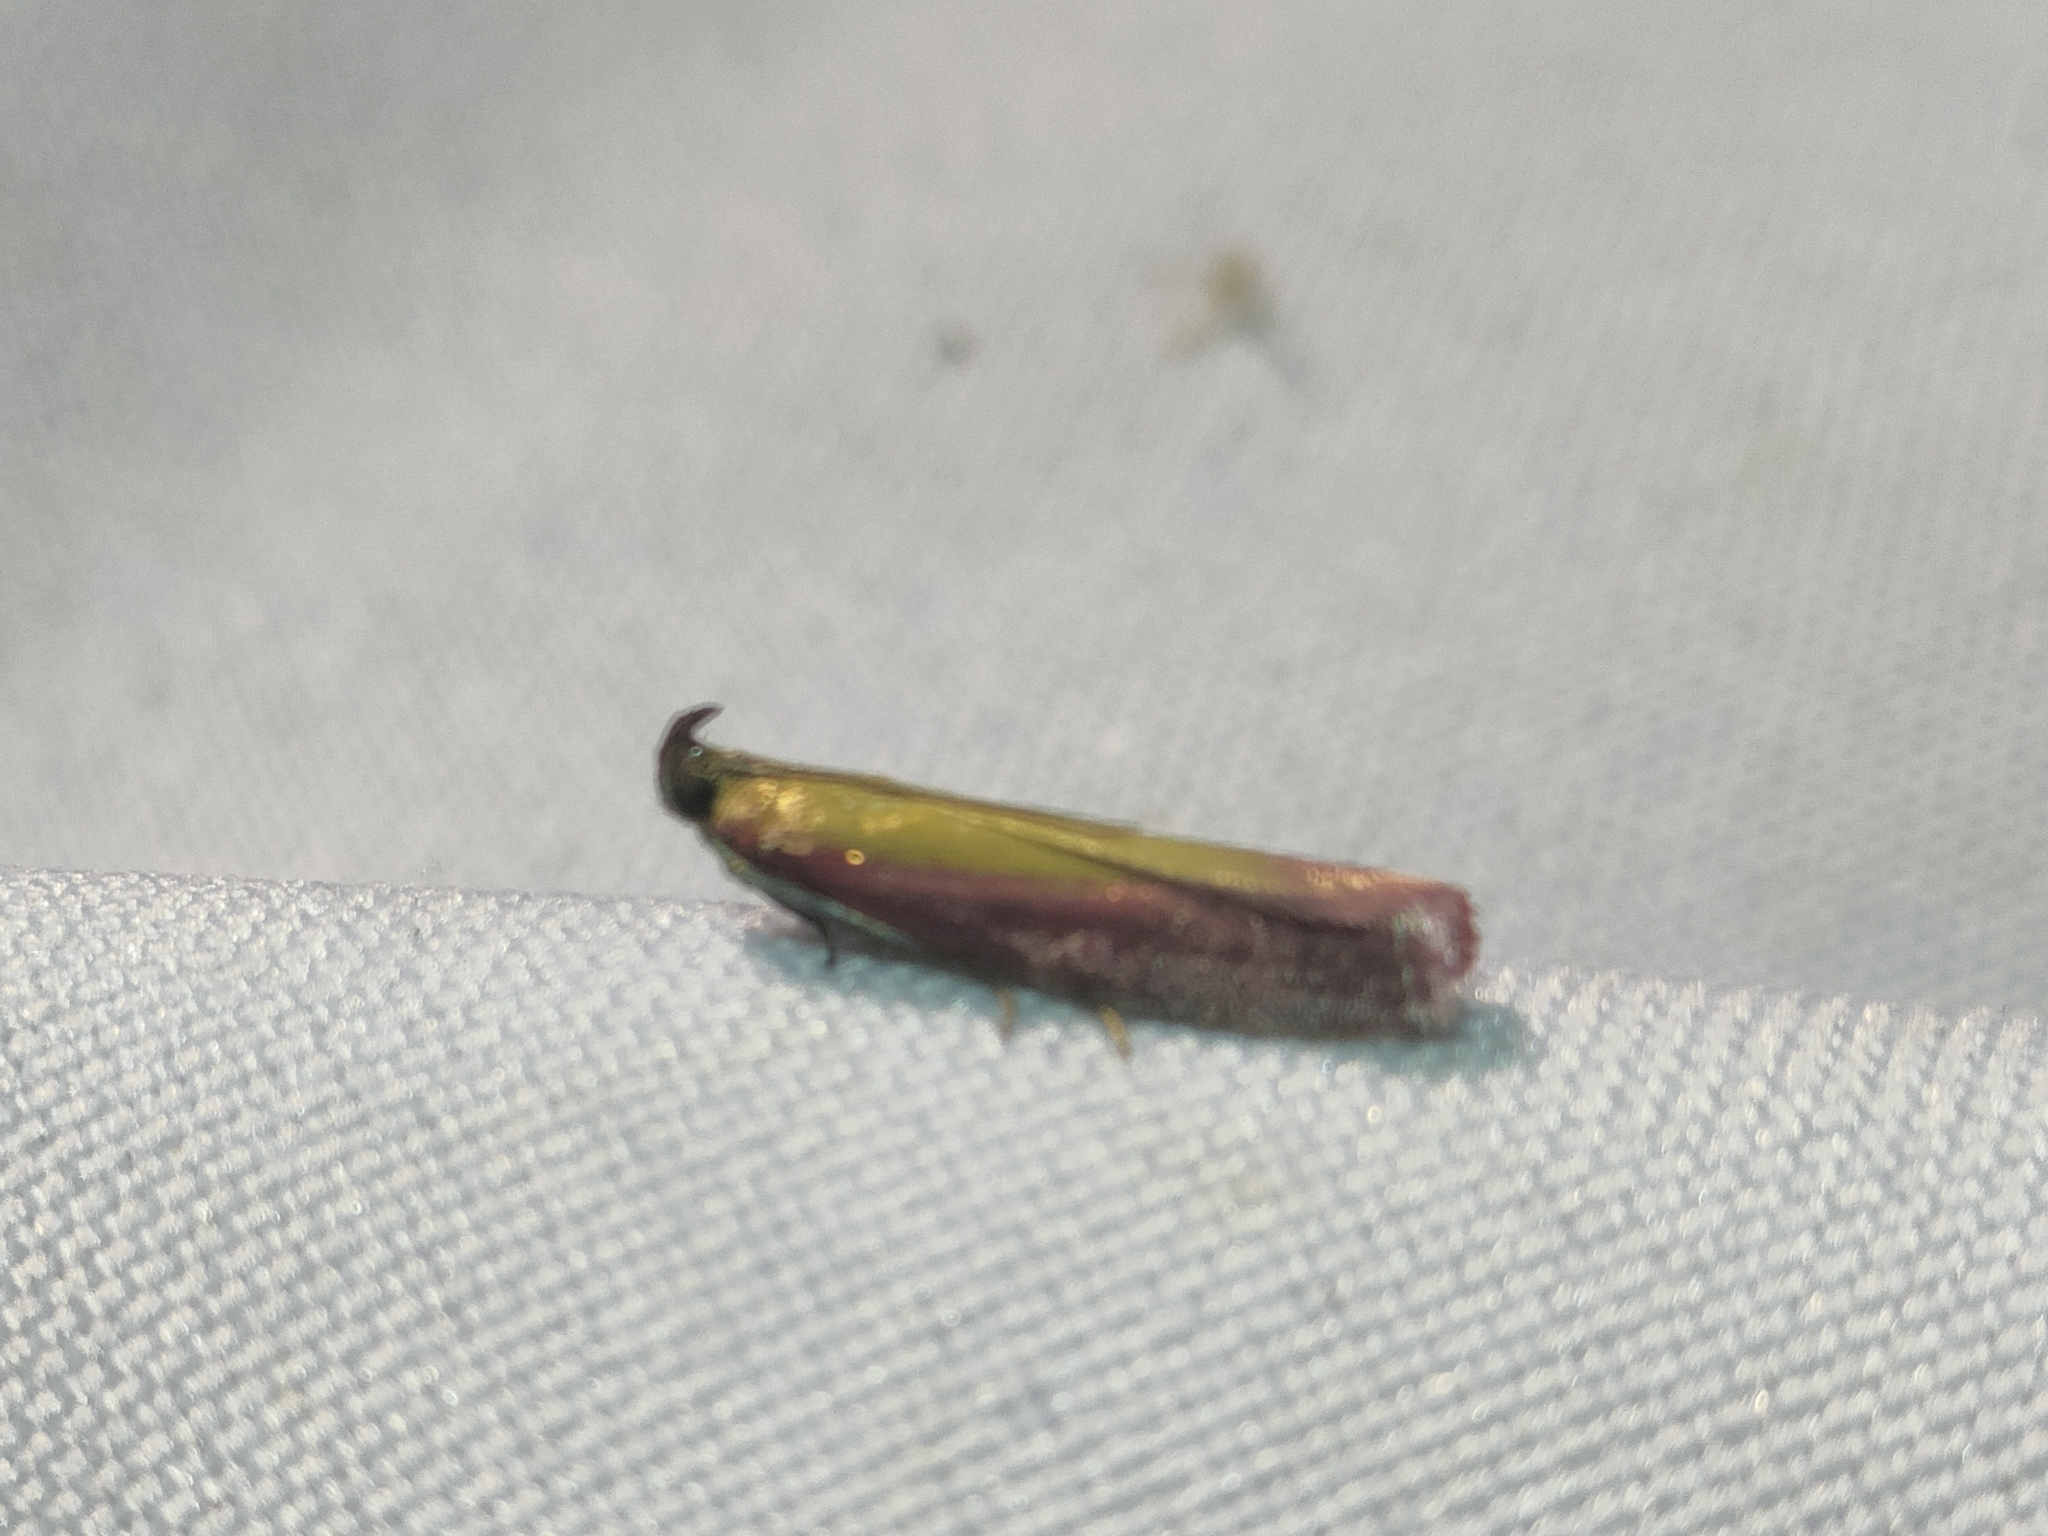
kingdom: Animalia
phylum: Arthropoda
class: Insecta
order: Lepidoptera
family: Pyralidae
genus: Oncocera
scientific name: Oncocera semirubella
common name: Rosy-striped knot-horn
